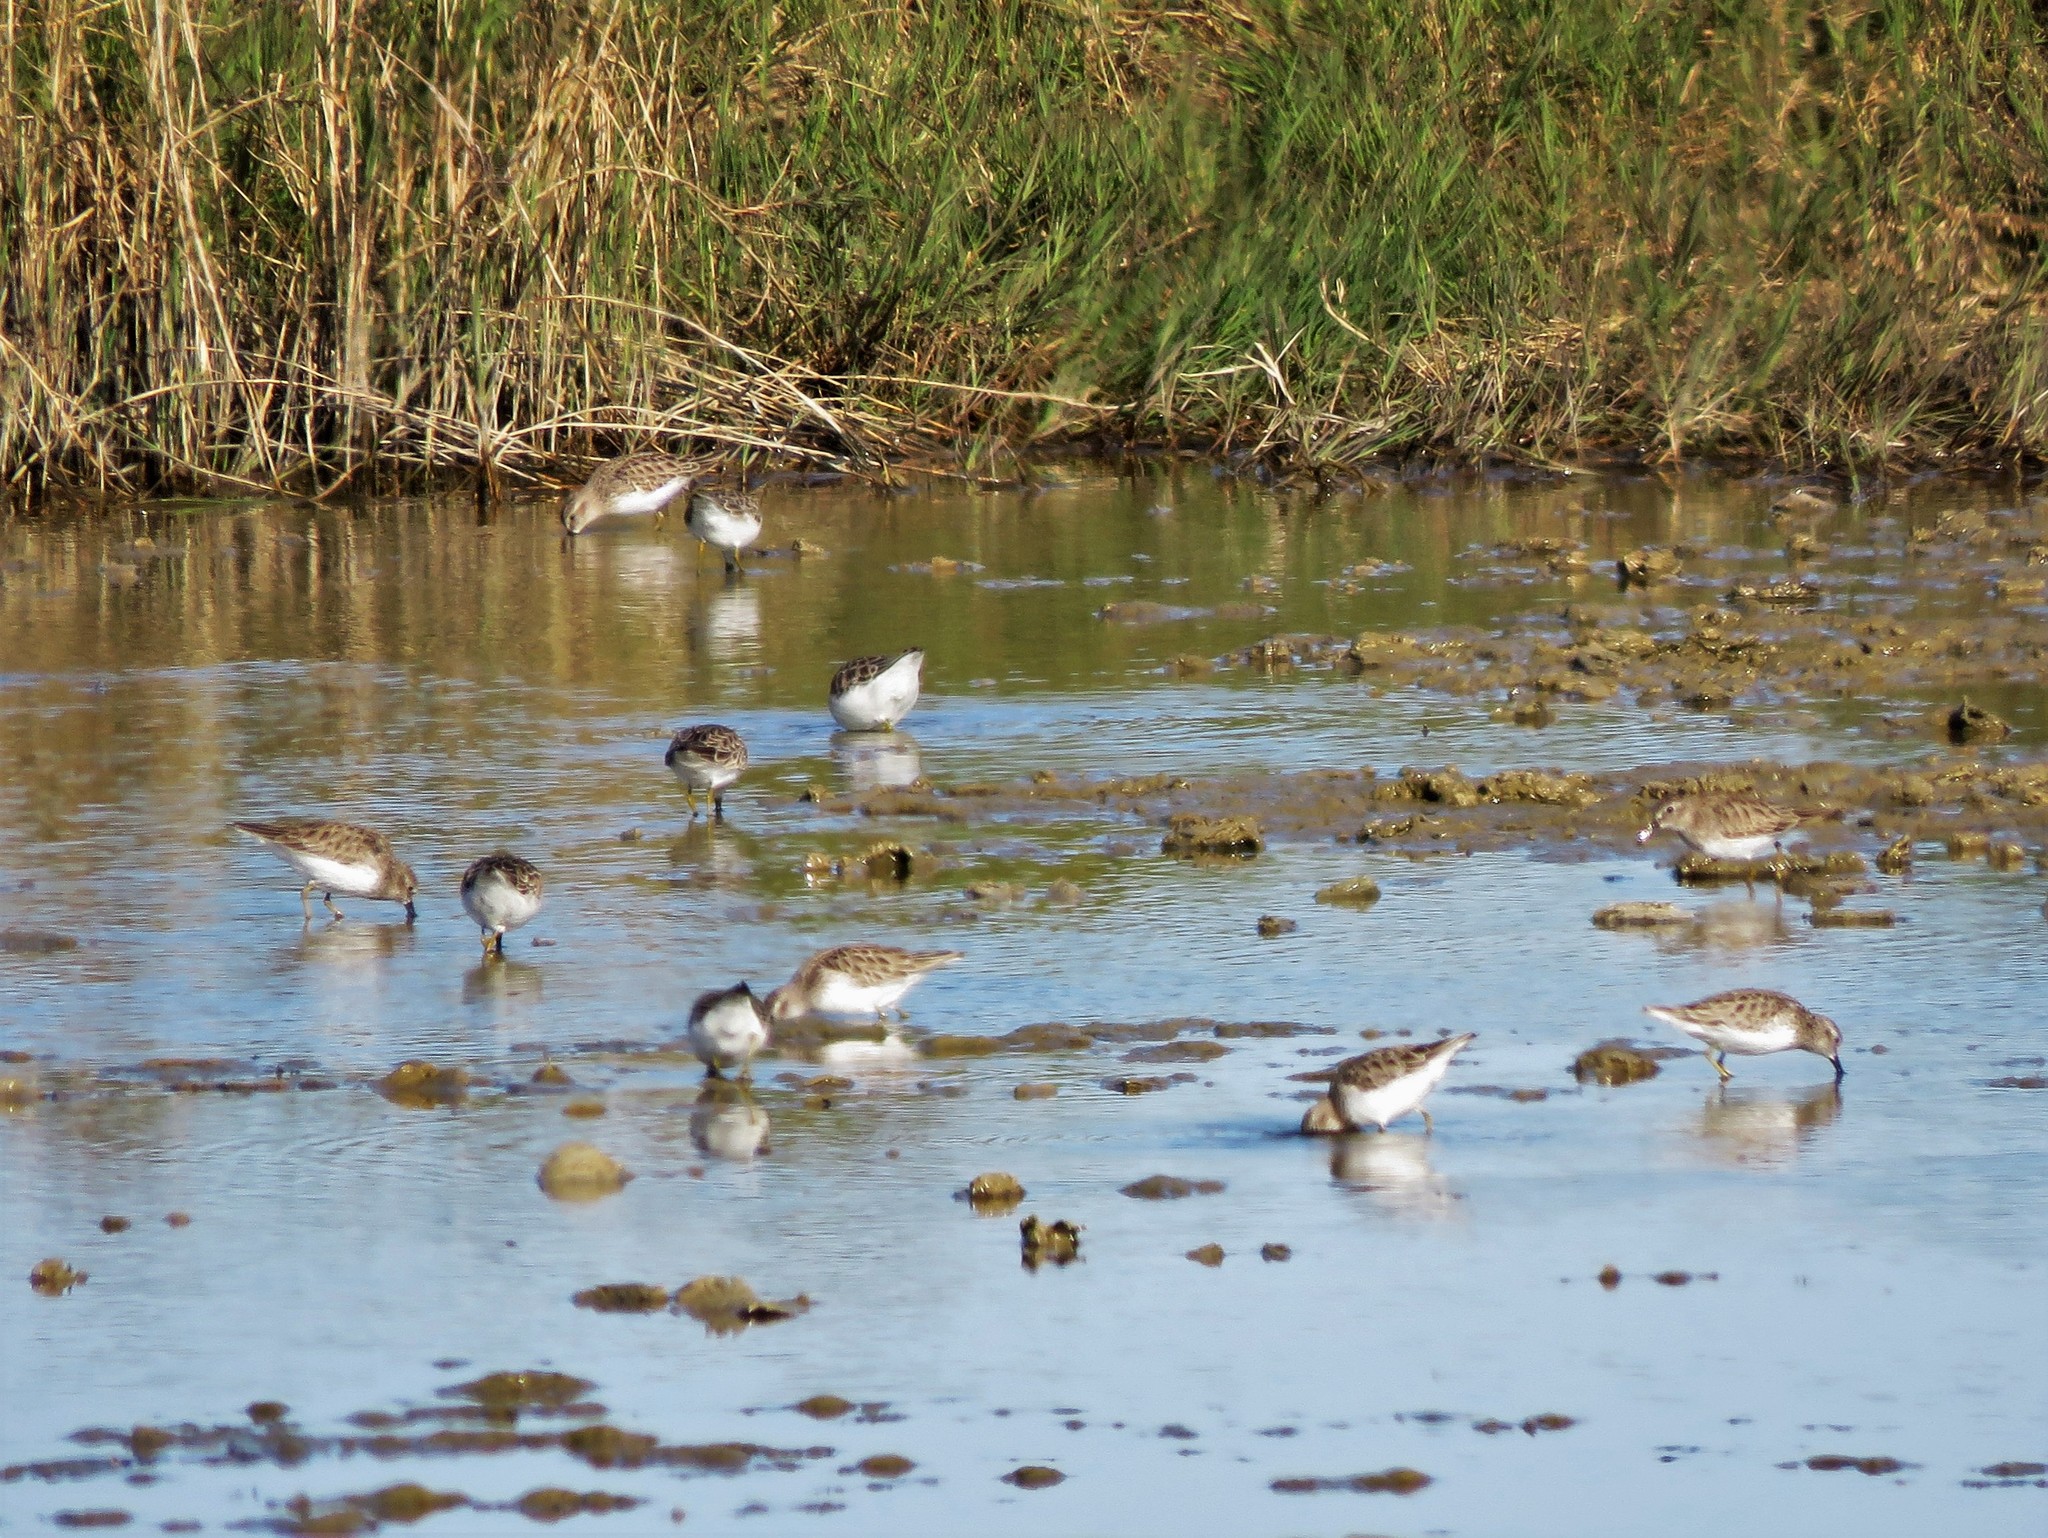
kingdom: Animalia
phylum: Chordata
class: Aves
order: Charadriiformes
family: Scolopacidae
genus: Calidris
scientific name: Calidris minutilla
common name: Least sandpiper
